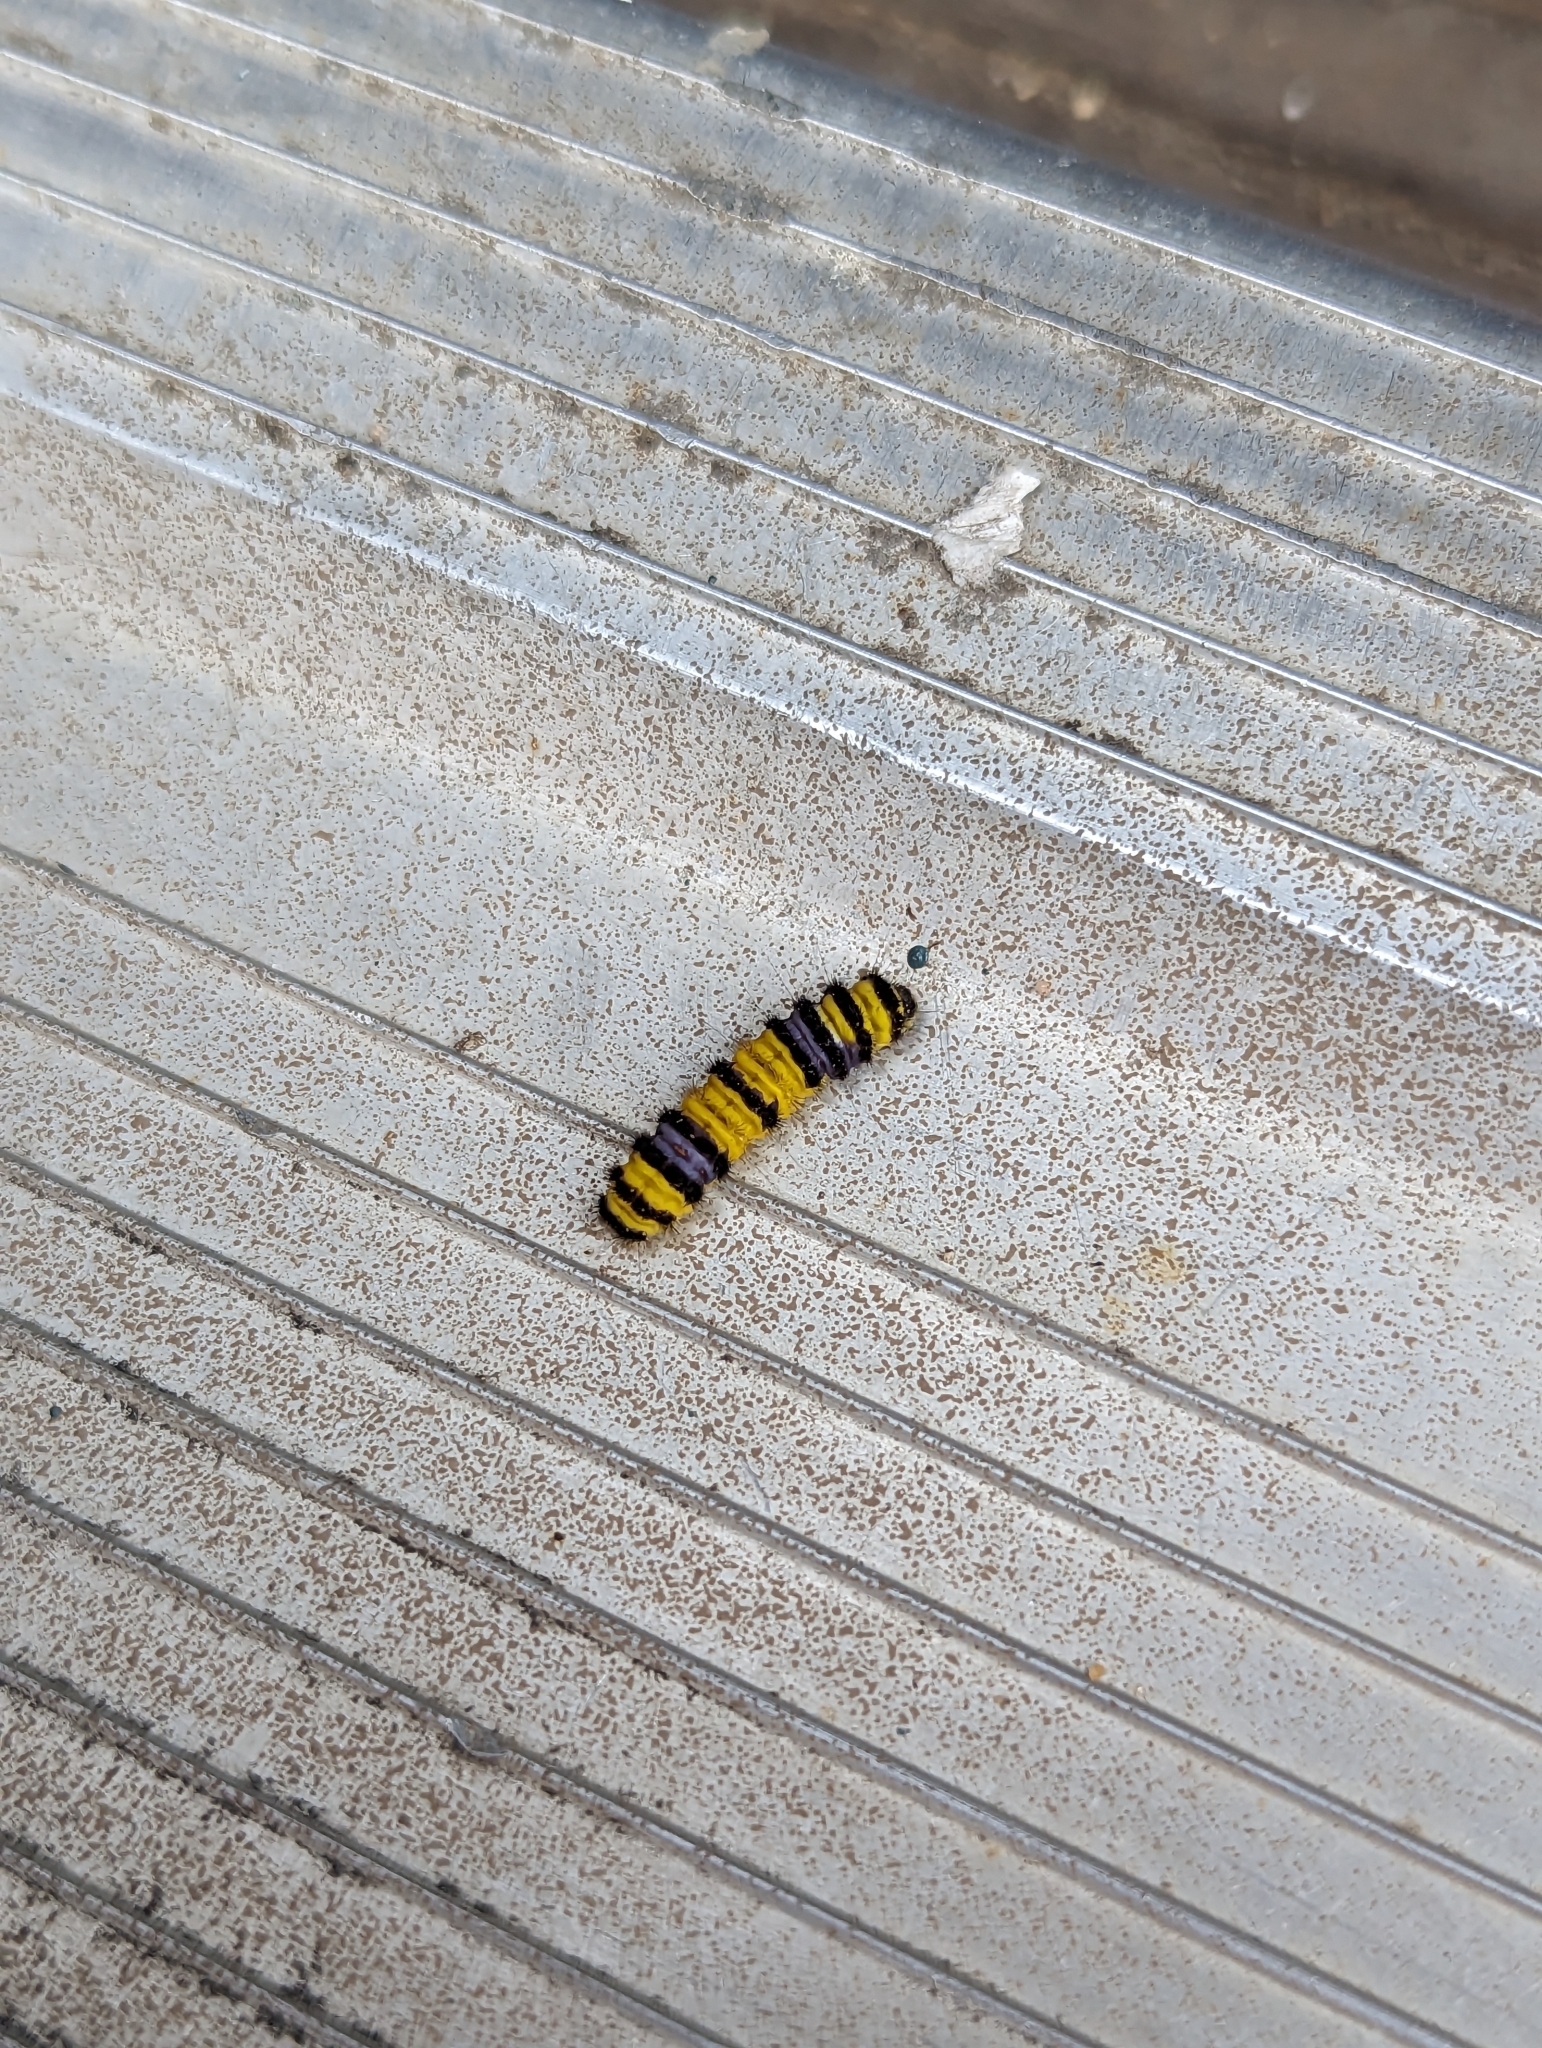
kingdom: Animalia
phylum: Arthropoda
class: Insecta
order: Lepidoptera
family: Zygaenidae
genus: Harrisina
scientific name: Harrisina metallica
